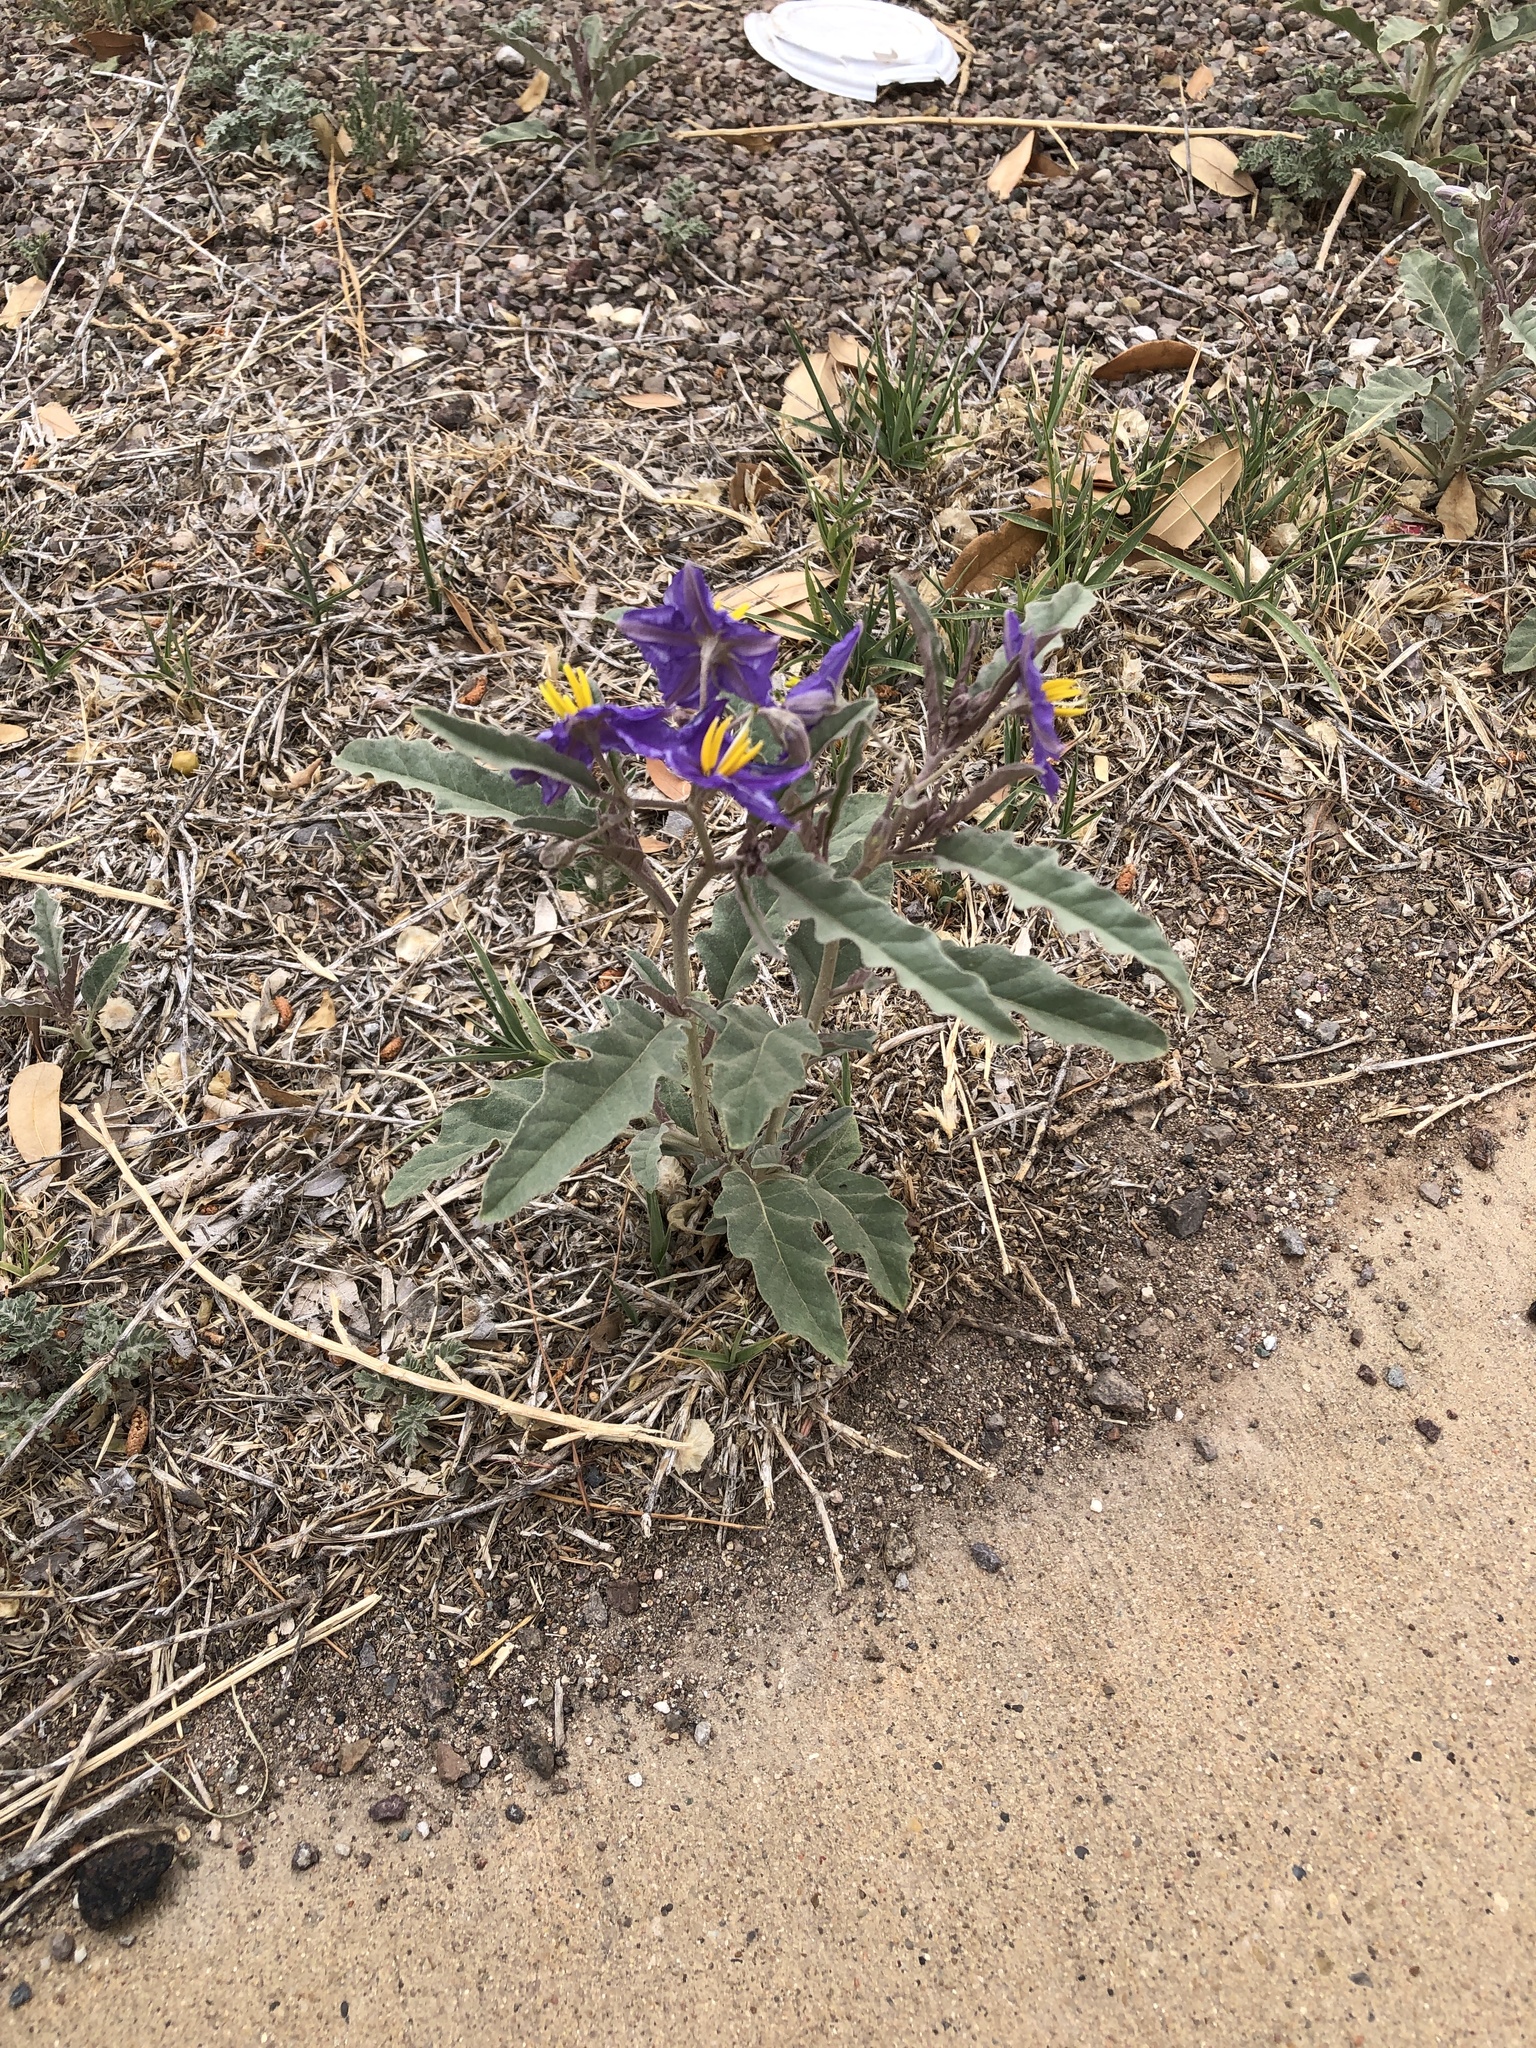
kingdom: Plantae
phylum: Tracheophyta
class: Magnoliopsida
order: Solanales
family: Solanaceae
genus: Solanum
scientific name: Solanum elaeagnifolium
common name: Silverleaf nightshade
